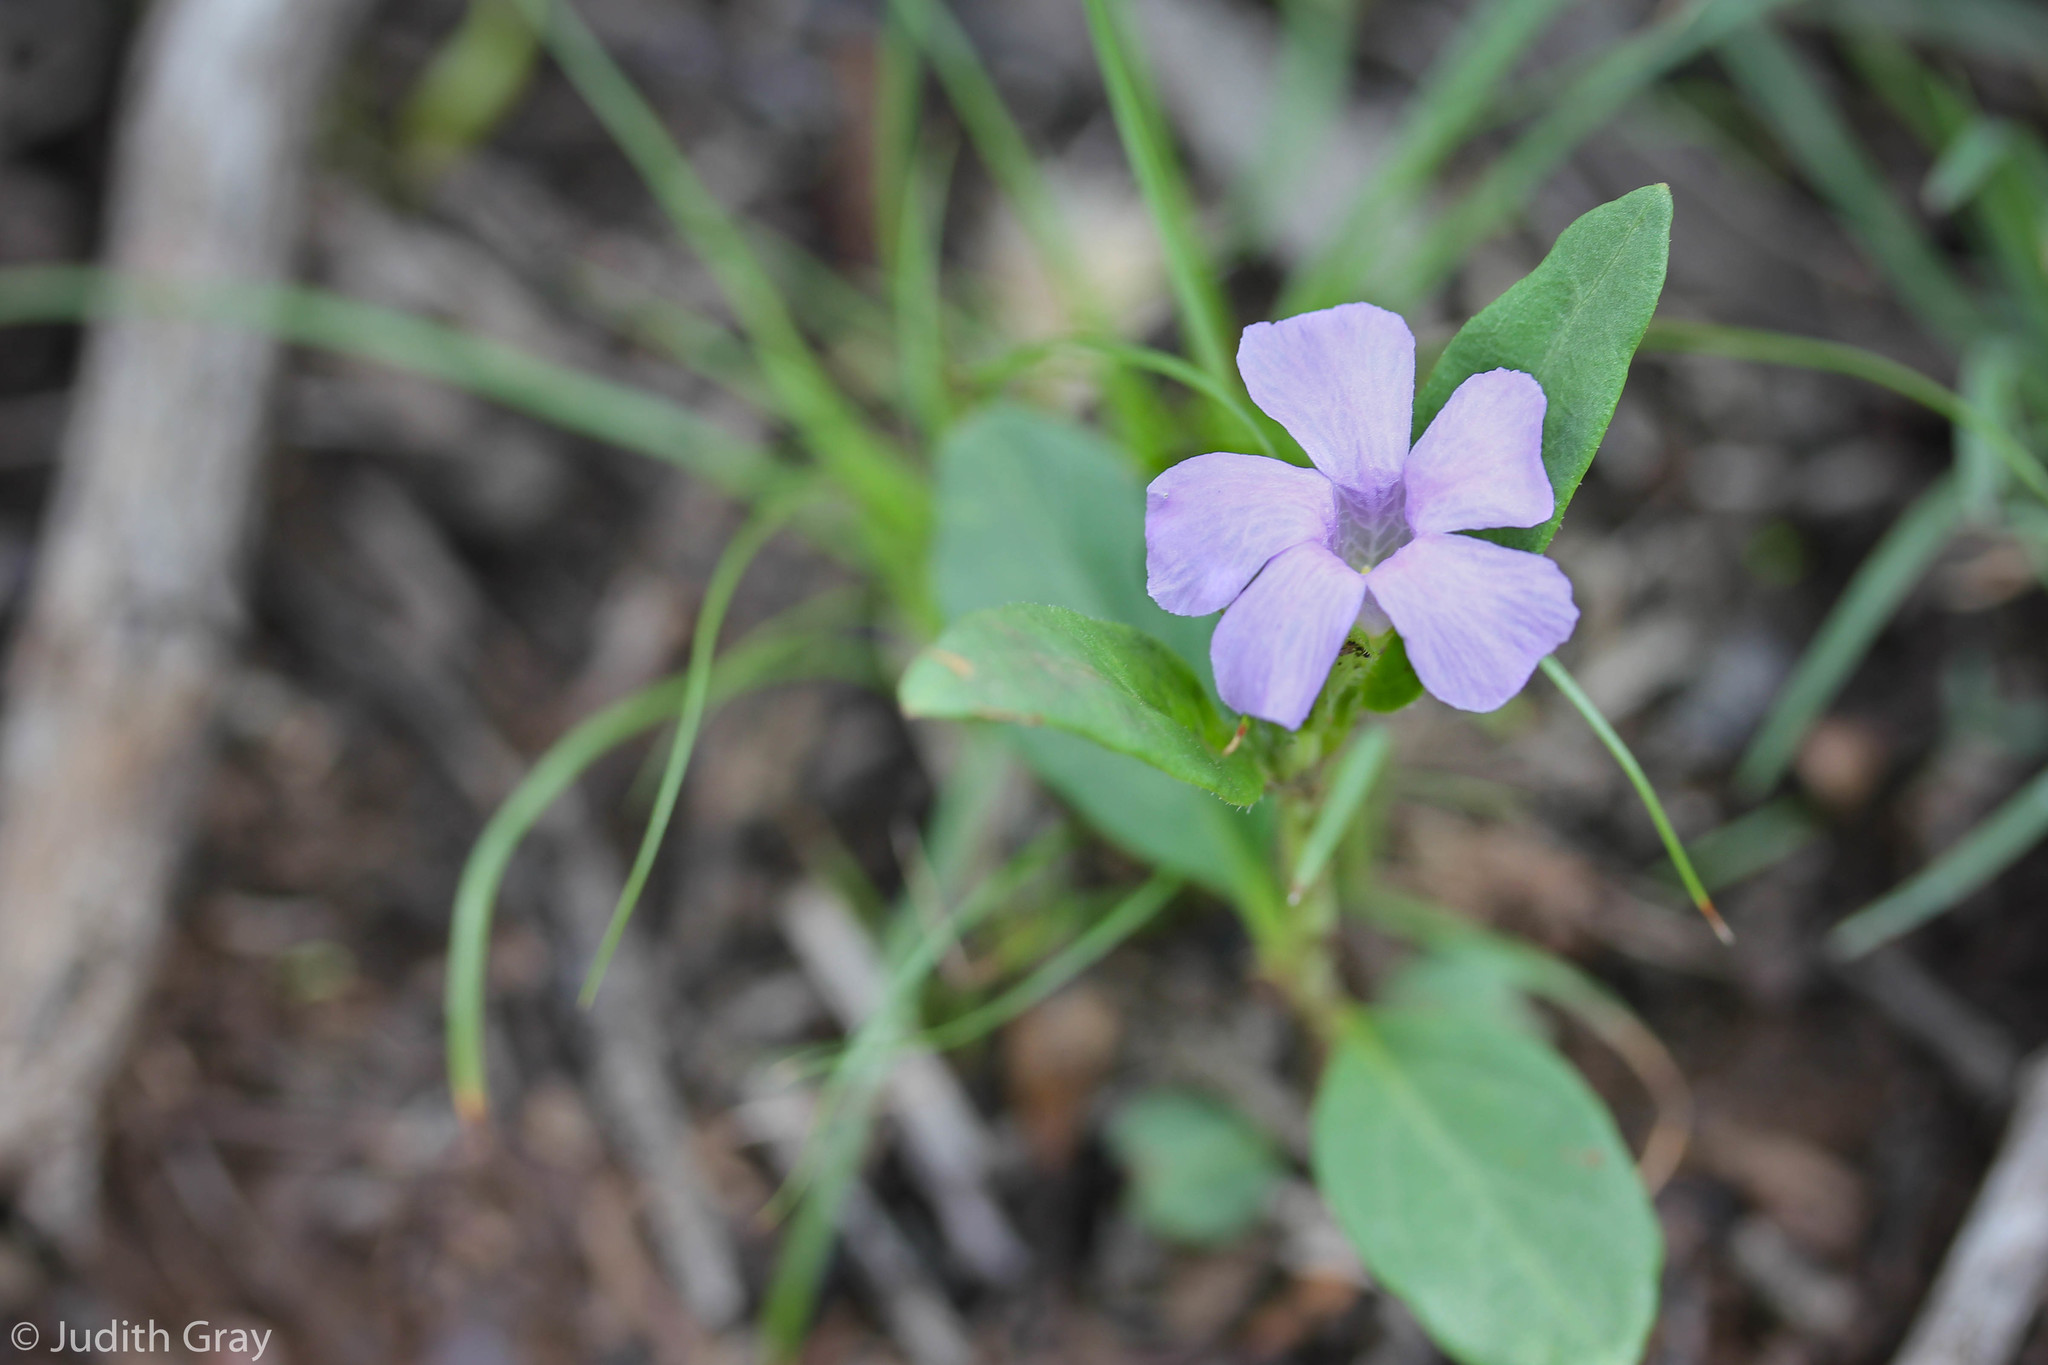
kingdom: Plantae
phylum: Tracheophyta
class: Magnoliopsida
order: Lamiales
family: Acanthaceae
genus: Brunoniella
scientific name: Brunoniella australis
